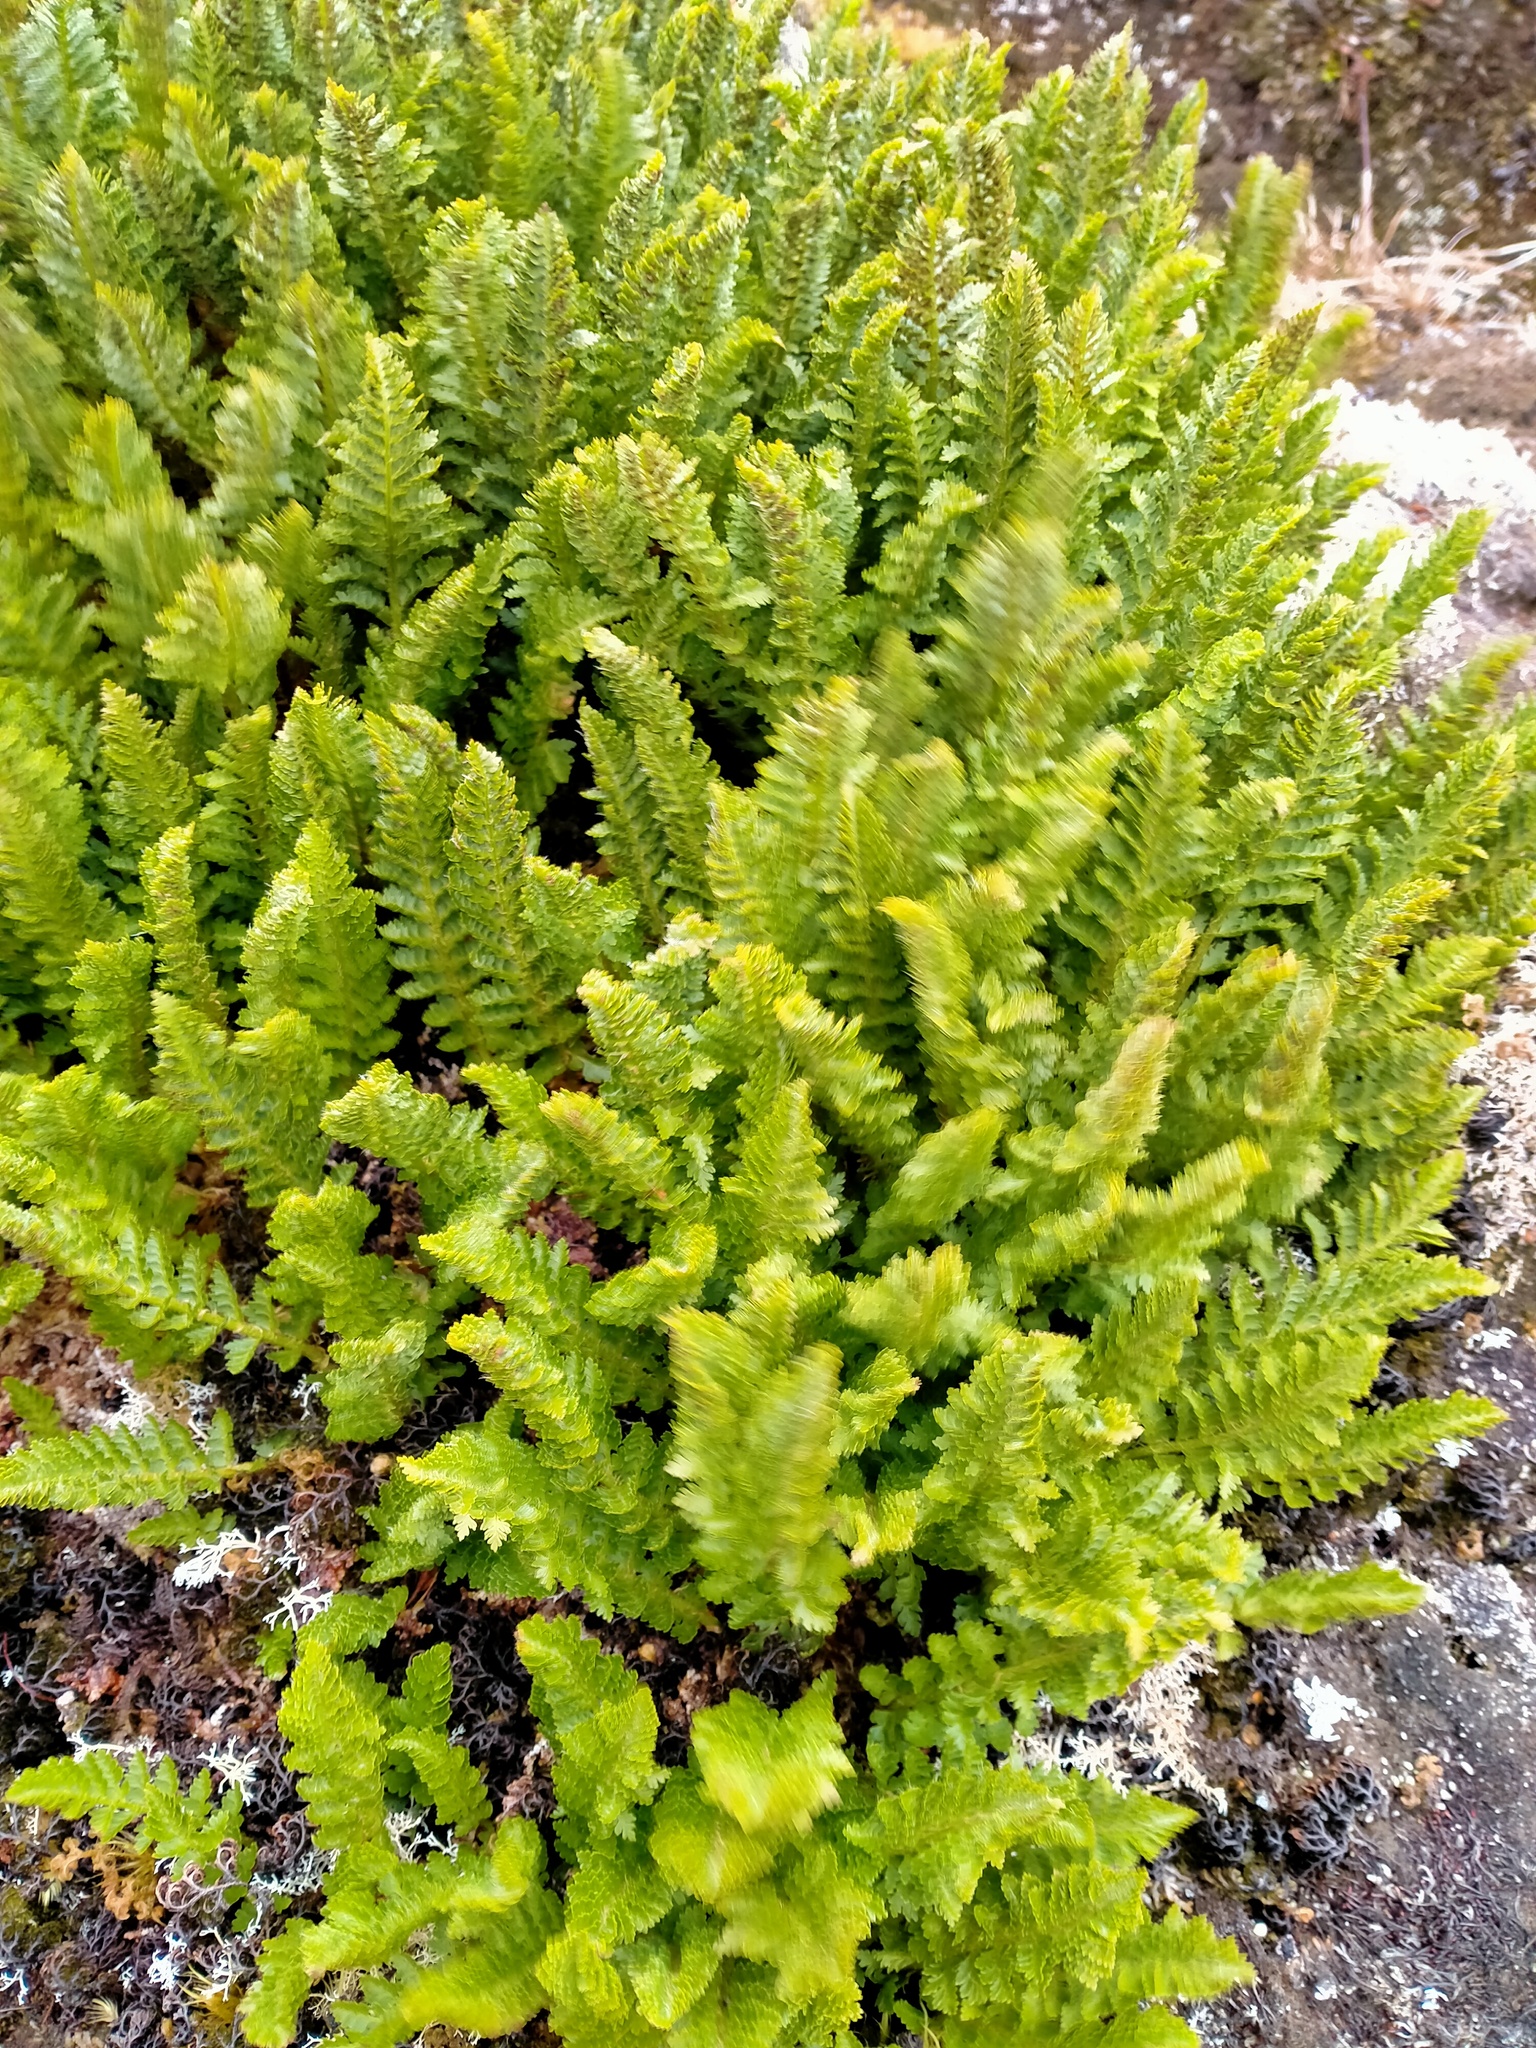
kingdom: Plantae
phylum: Tracheophyta
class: Polypodiopsida
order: Polypodiales
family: Dryopteridaceae
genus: Polystichum
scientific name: Polystichum cystostegia
